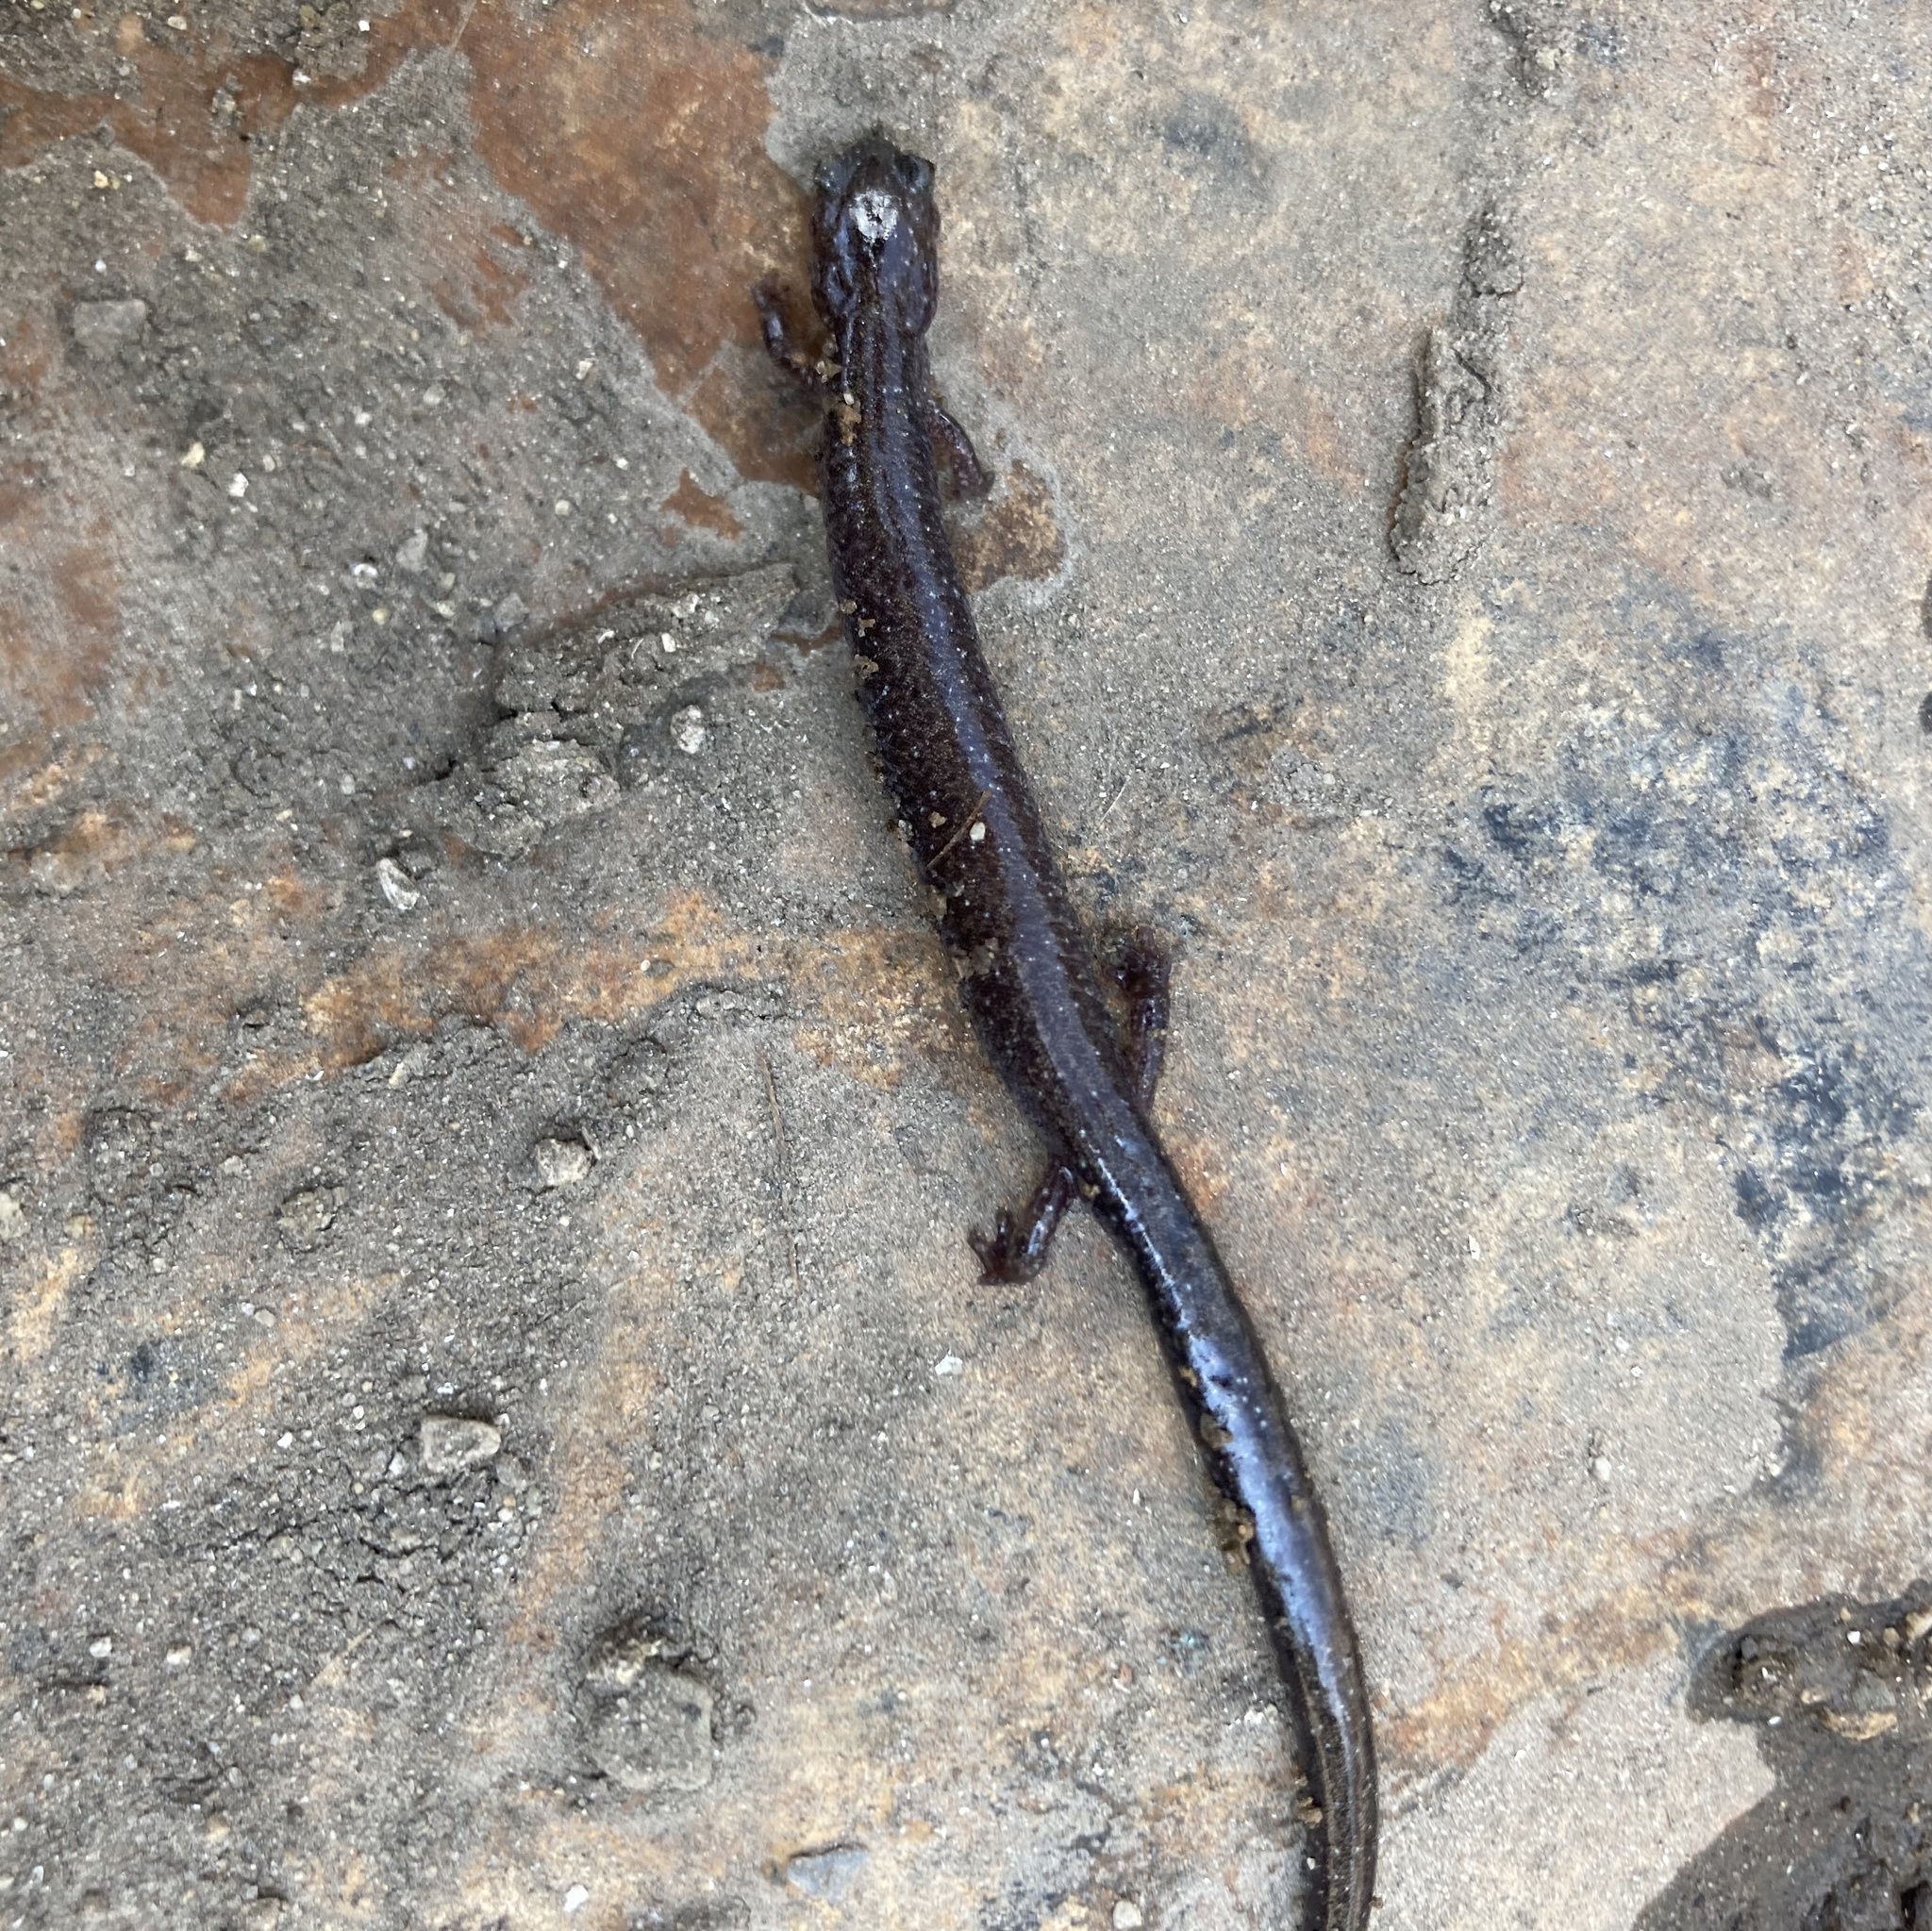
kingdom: Animalia
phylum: Chordata
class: Amphibia
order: Caudata
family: Plethodontidae
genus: Plethodon
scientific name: Plethodon cinereus
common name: Redback salamander
